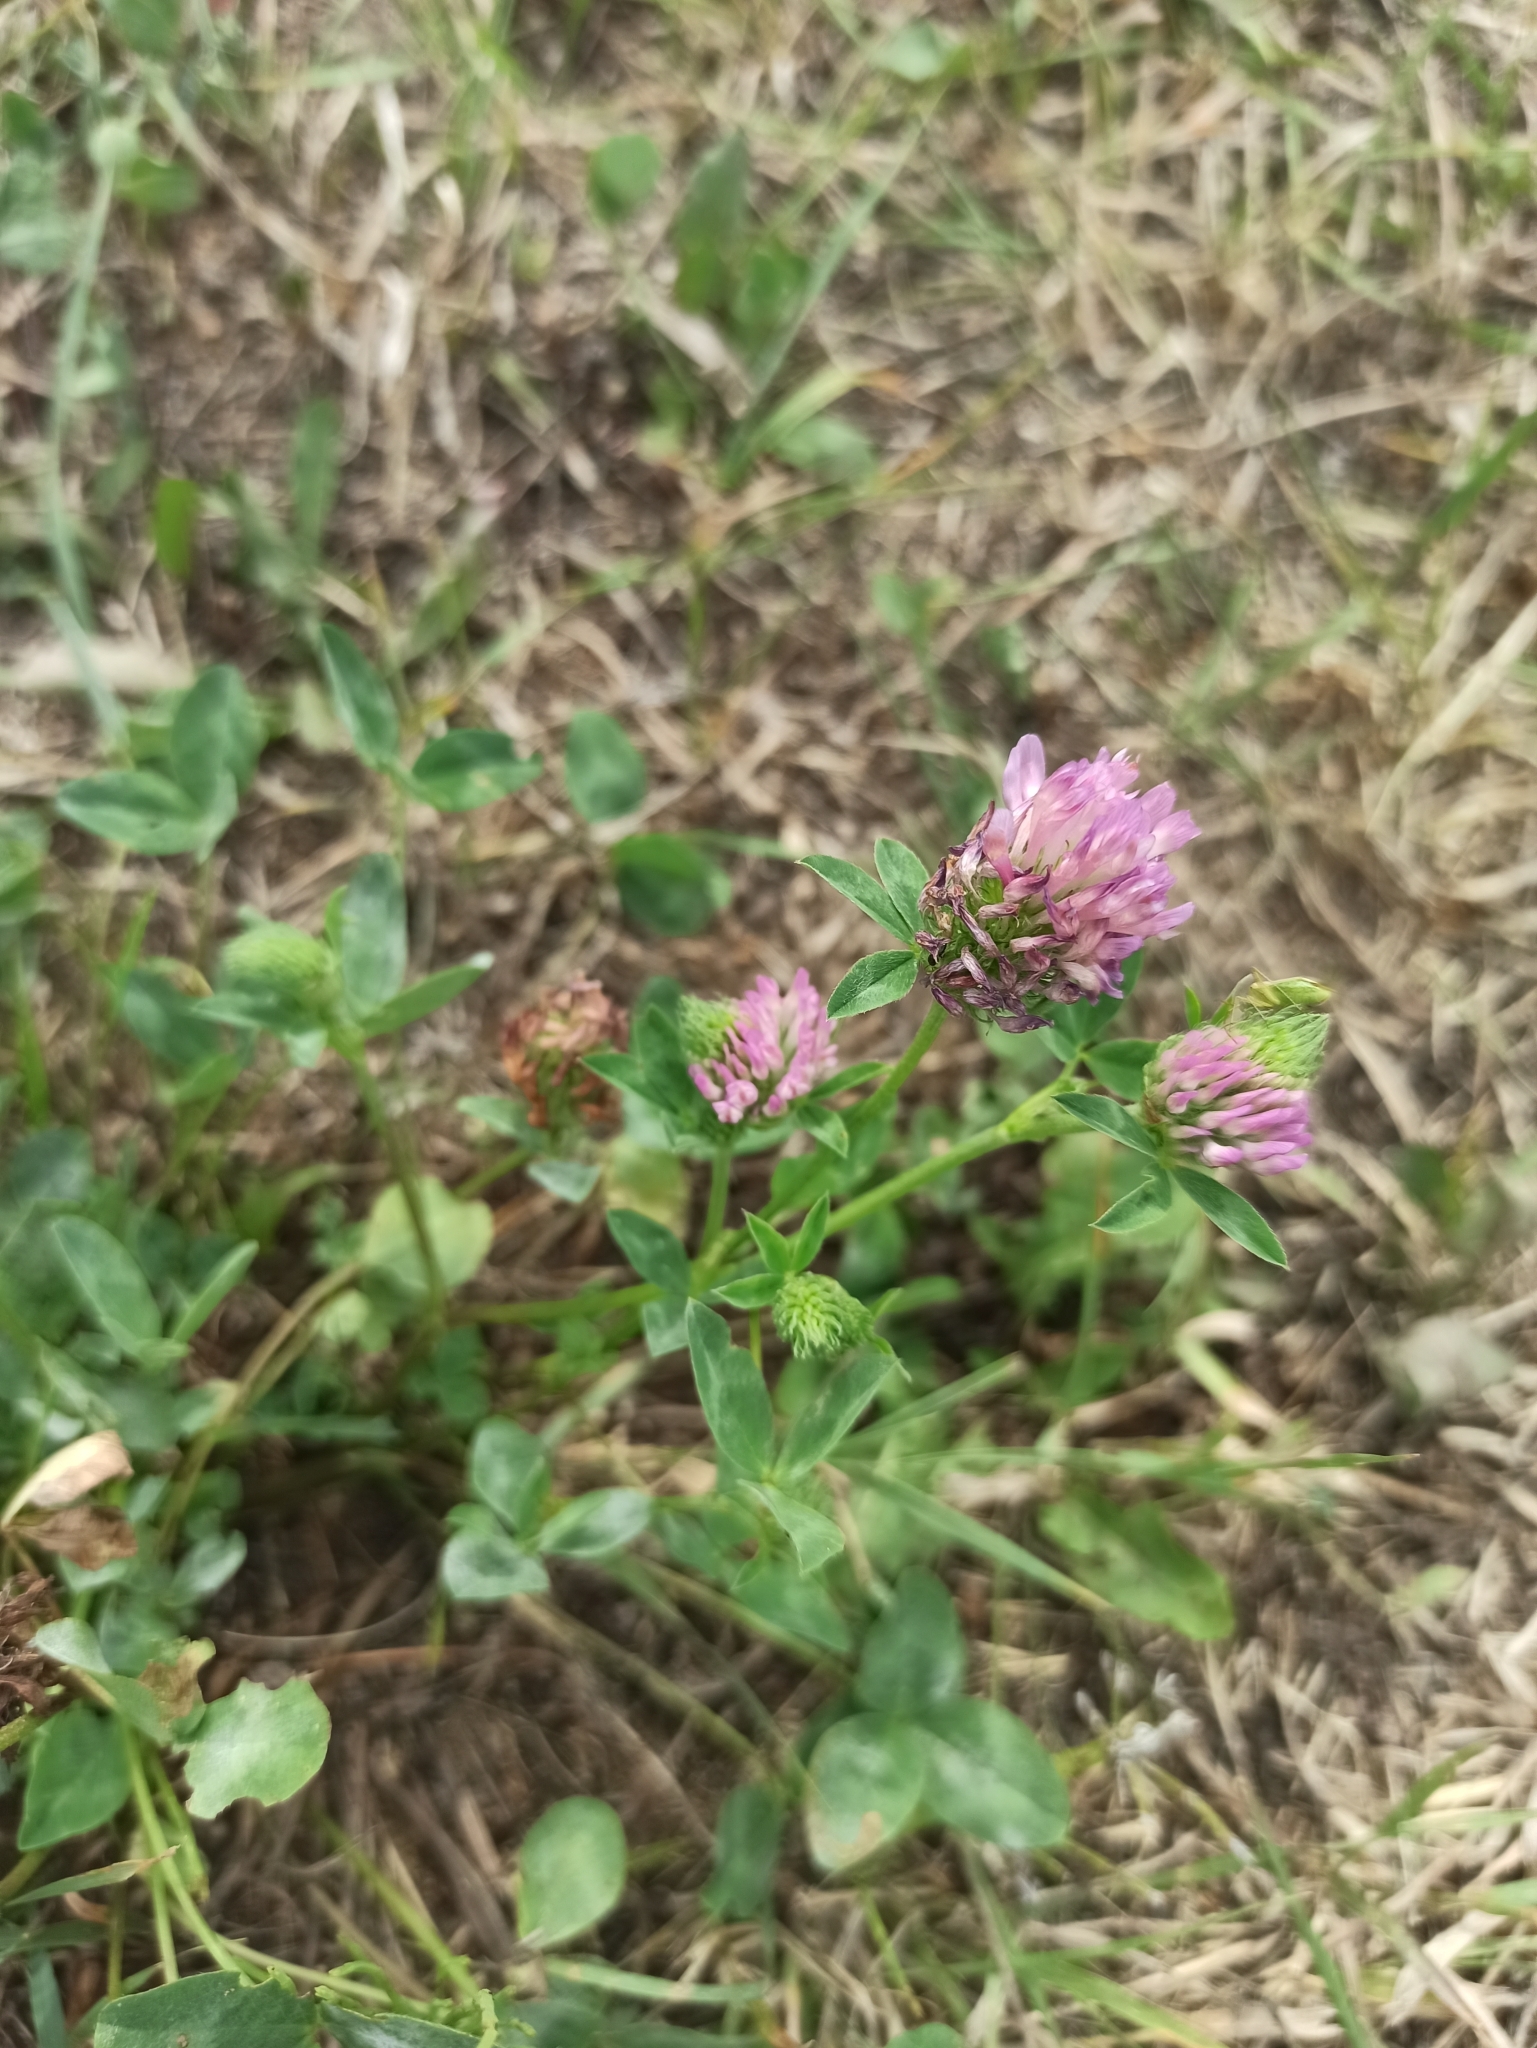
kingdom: Plantae
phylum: Tracheophyta
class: Magnoliopsida
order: Fabales
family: Fabaceae
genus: Trifolium
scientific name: Trifolium pratense
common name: Red clover
